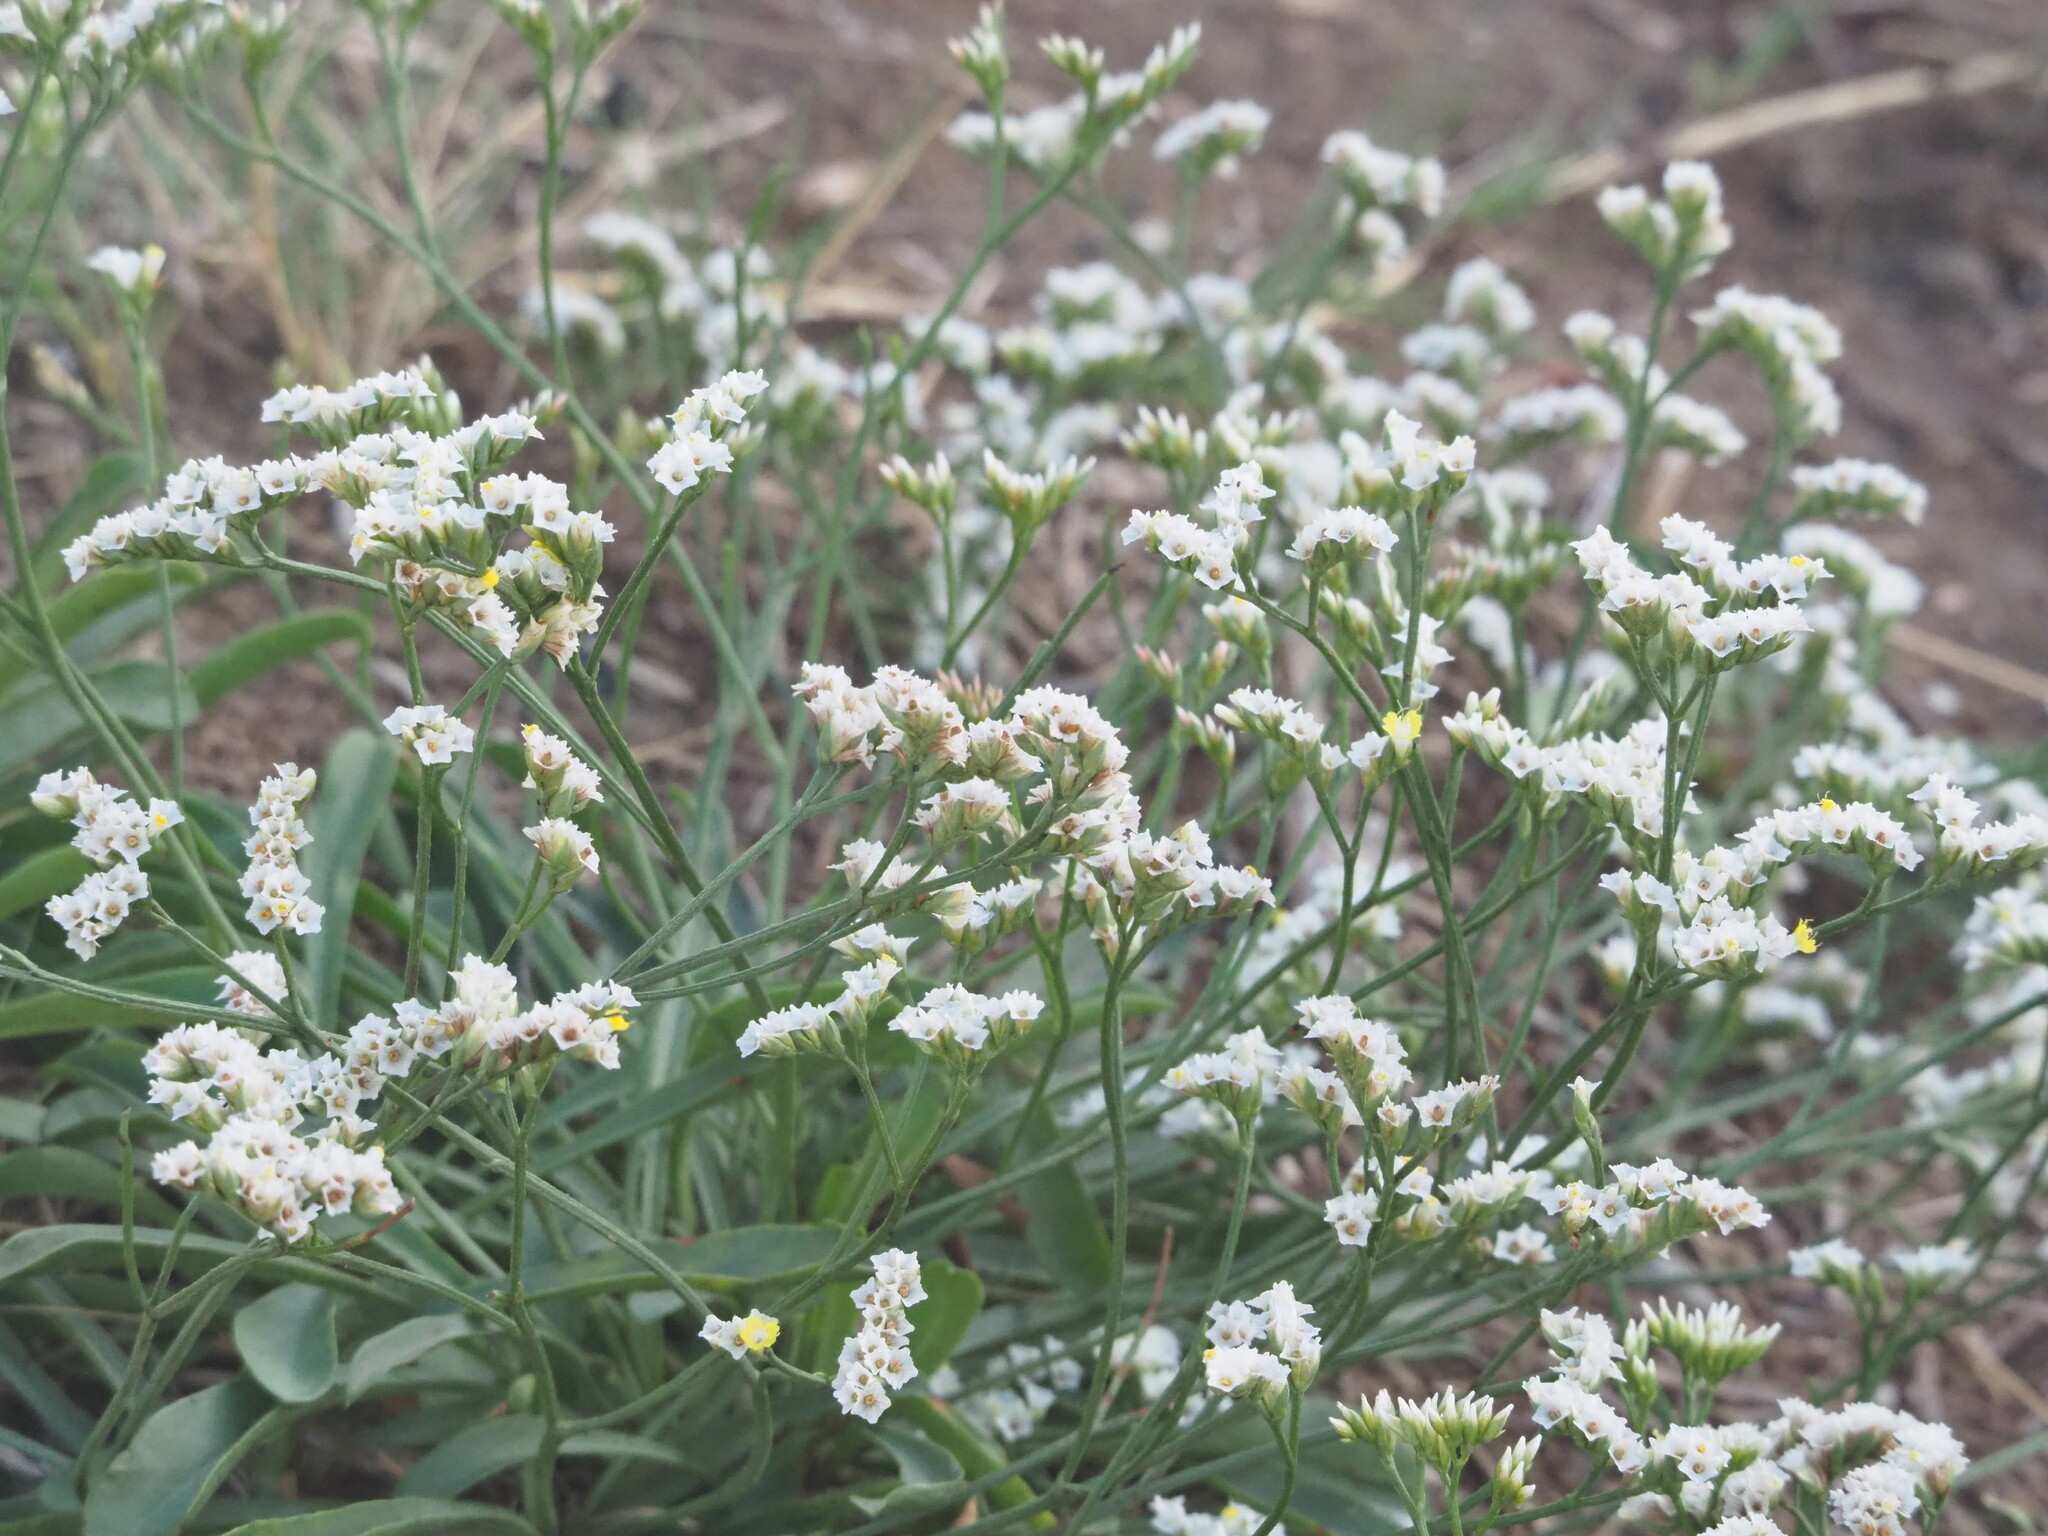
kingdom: Plantae
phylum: Tracheophyta
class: Magnoliopsida
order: Caryophyllales
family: Plumbaginaceae
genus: Limonium
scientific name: Limonium sinense
